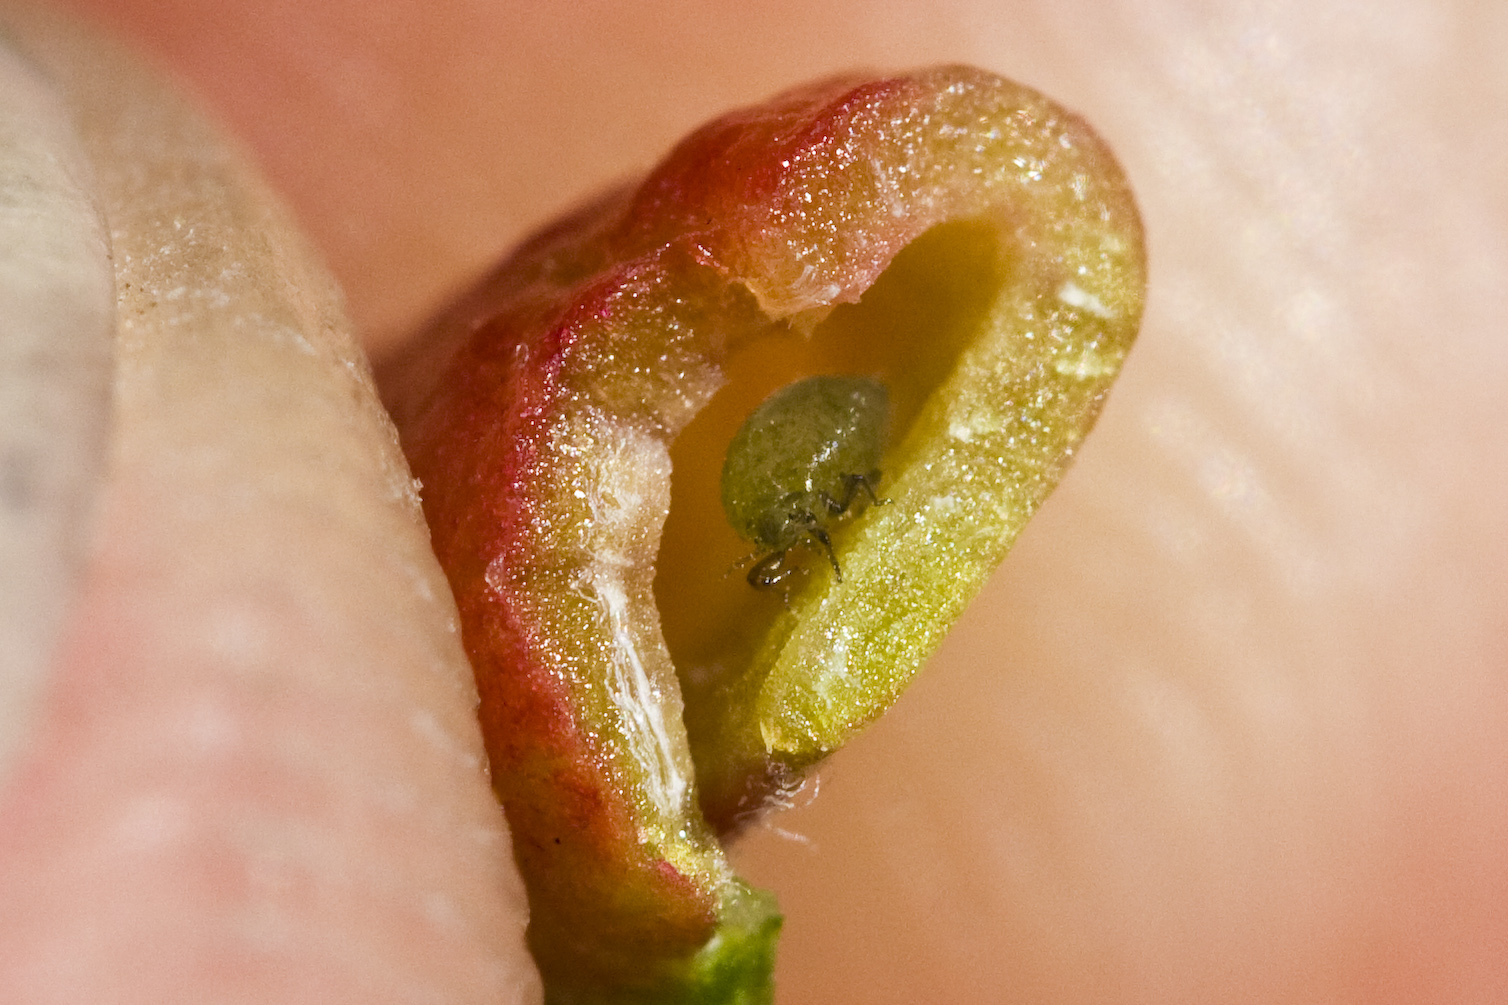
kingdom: Animalia
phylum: Arthropoda
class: Insecta
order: Hemiptera
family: Aphididae
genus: Tamalia
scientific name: Tamalia coweni
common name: Manzanita leafgall aphid
